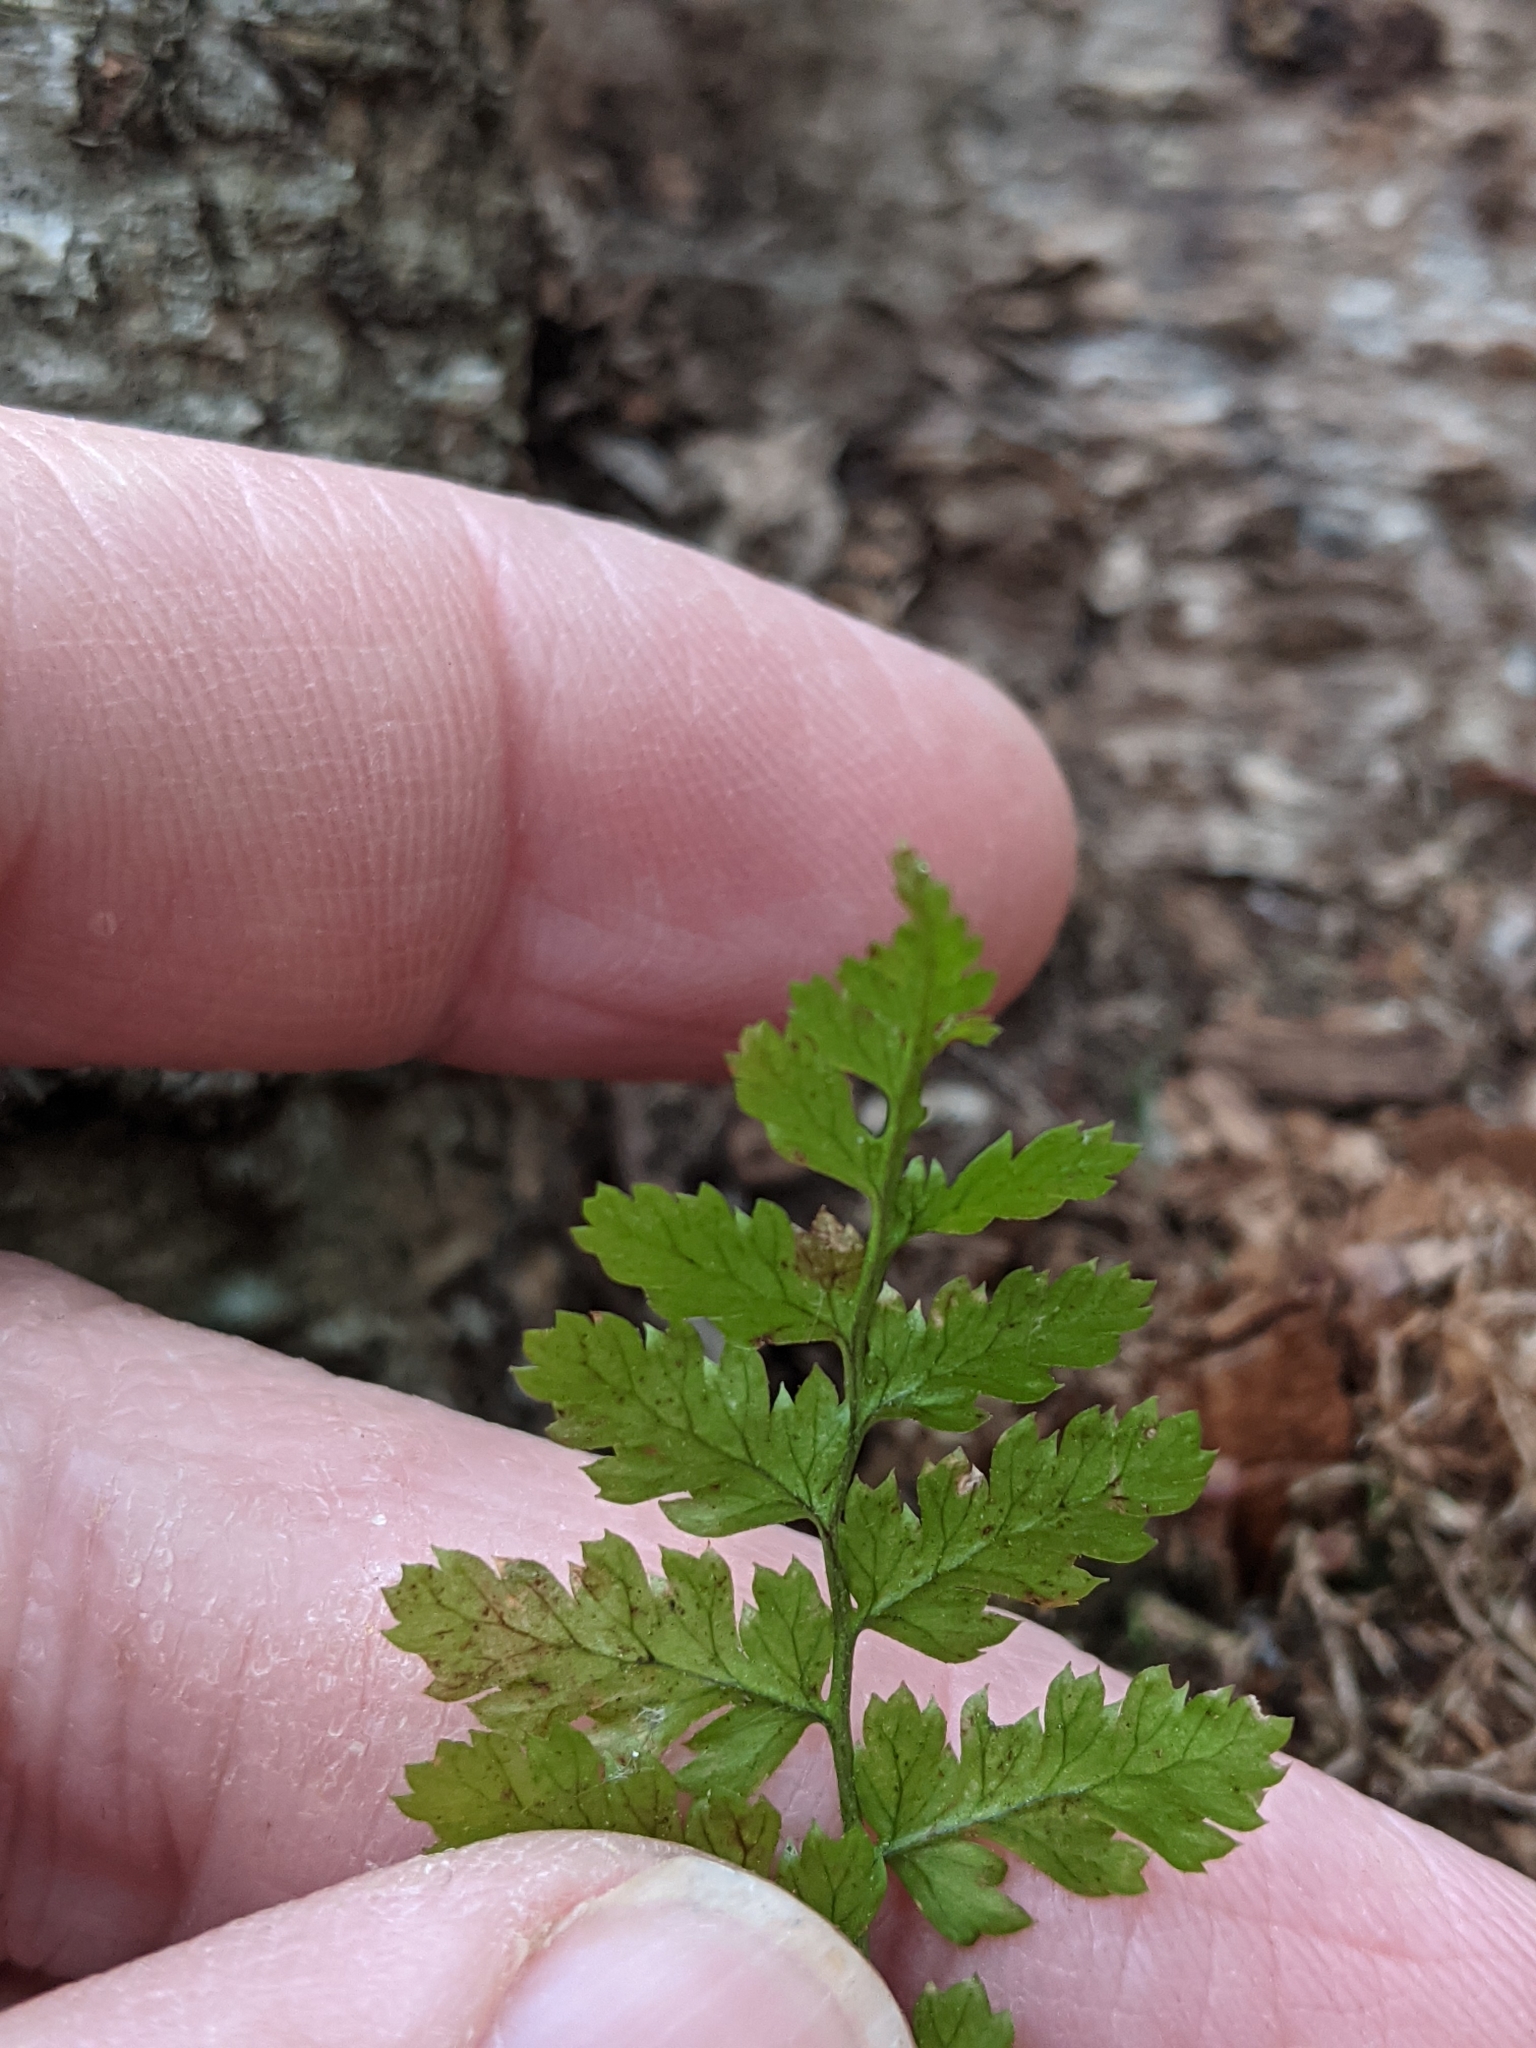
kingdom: Plantae
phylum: Tracheophyta
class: Polypodiopsida
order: Polypodiales
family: Dryopteridaceae
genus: Dryopteris
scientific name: Dryopteris intermedia
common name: Evergreen wood fern
